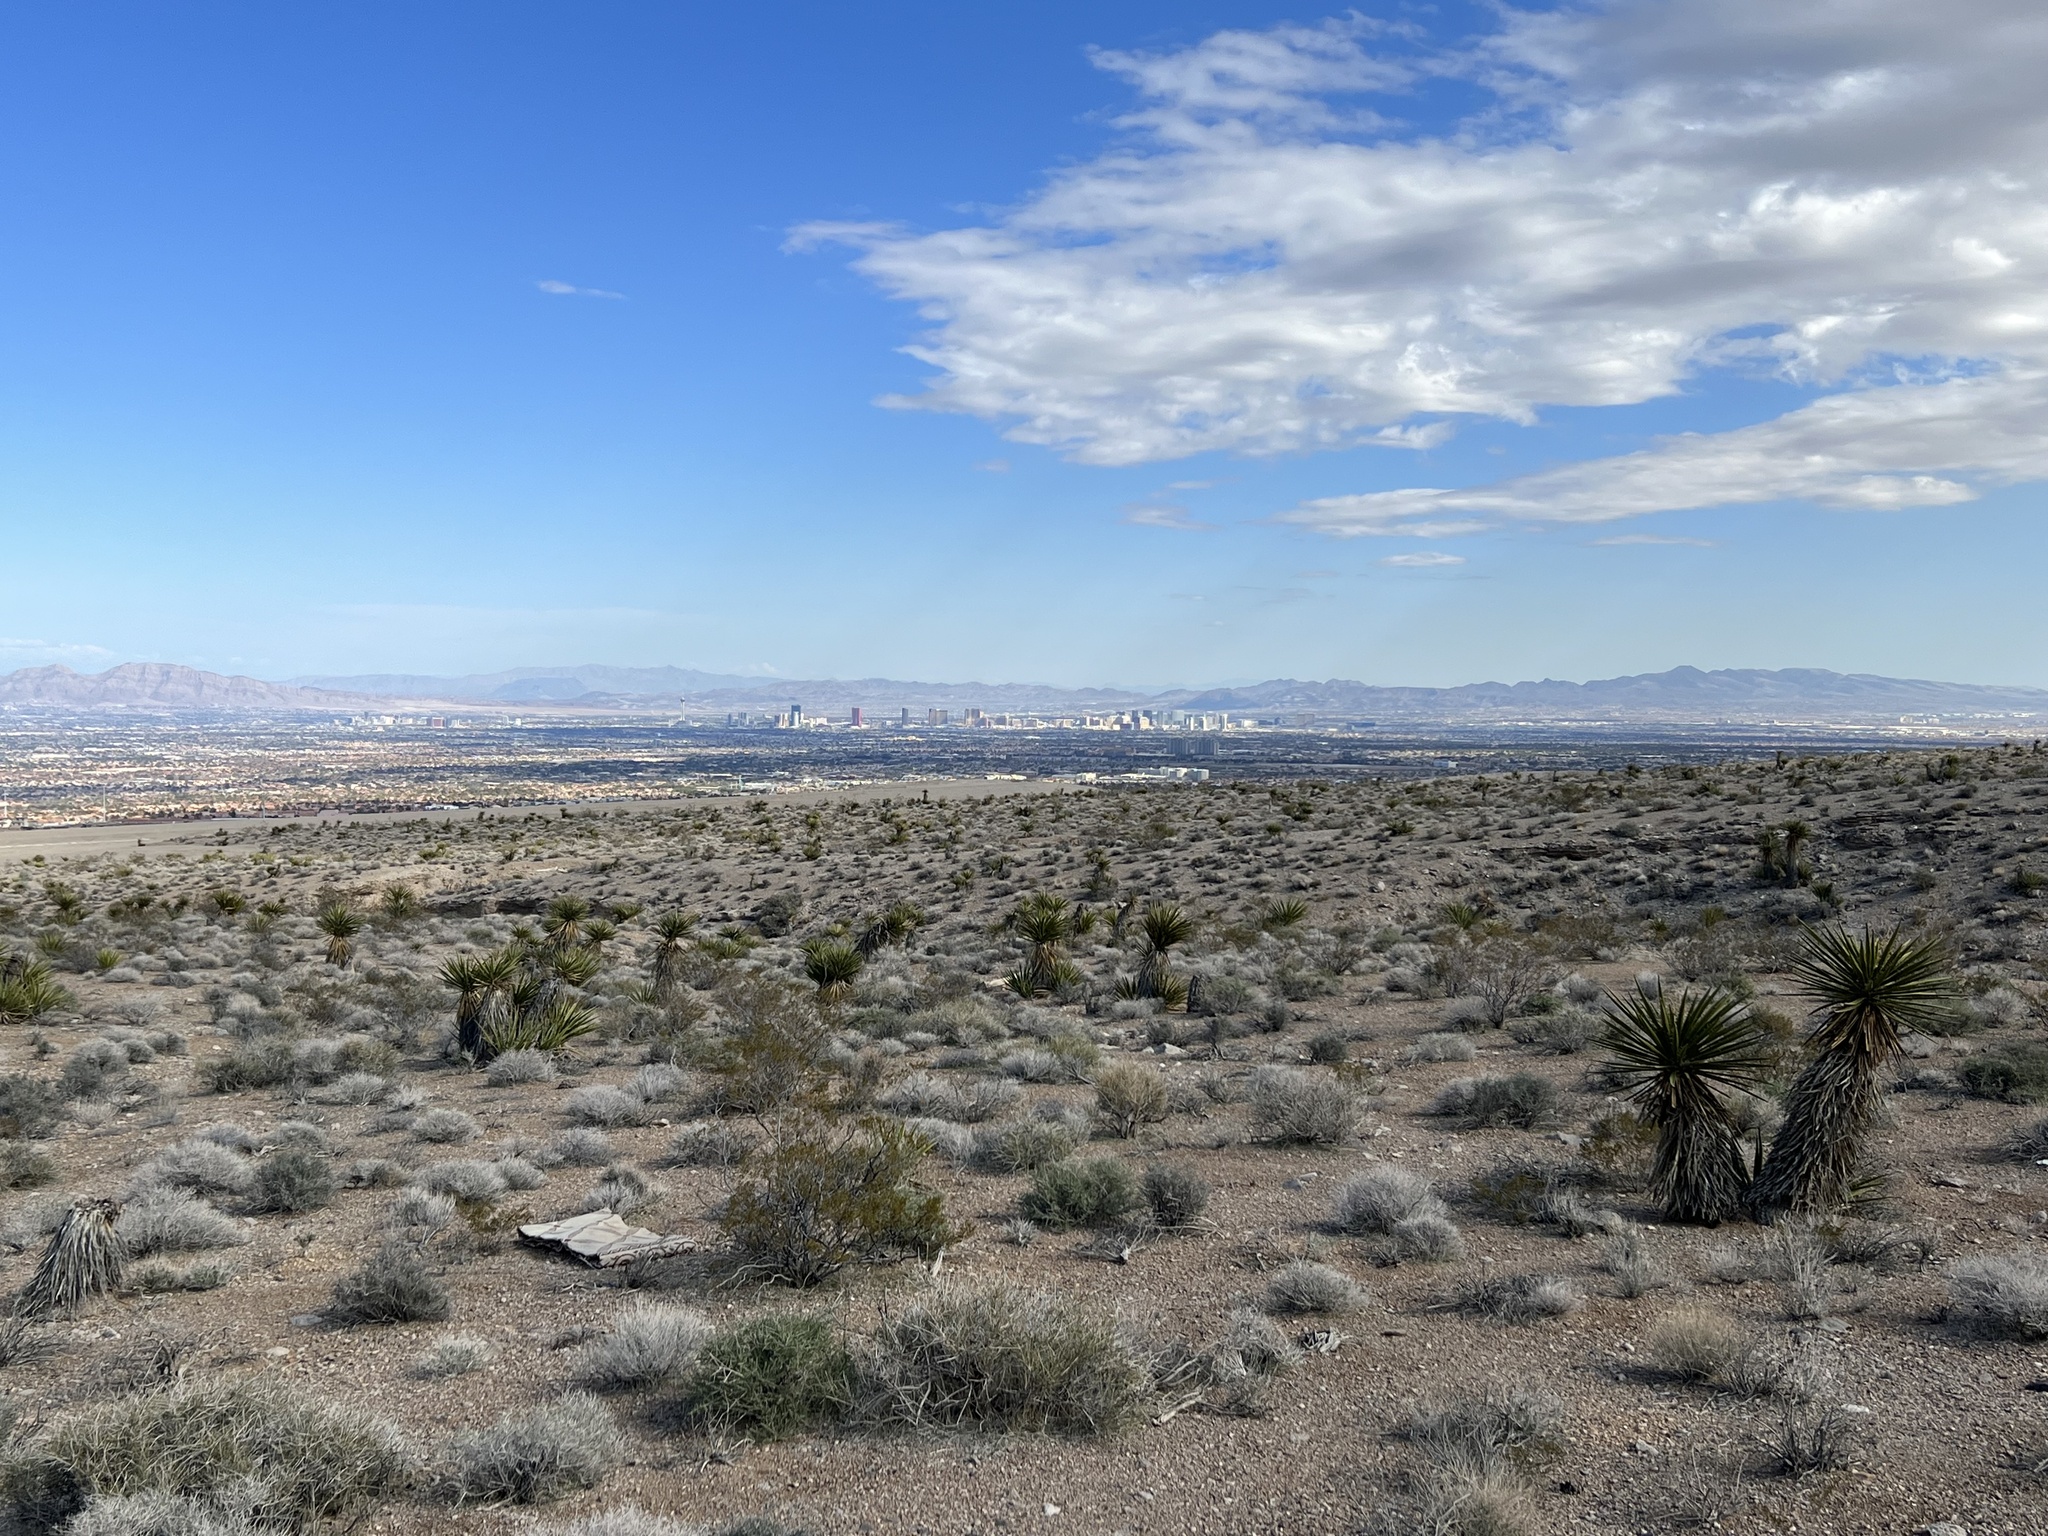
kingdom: Plantae
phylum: Tracheophyta
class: Liliopsida
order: Asparagales
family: Asparagaceae
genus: Yucca
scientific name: Yucca schidigera
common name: Mojave yucca
